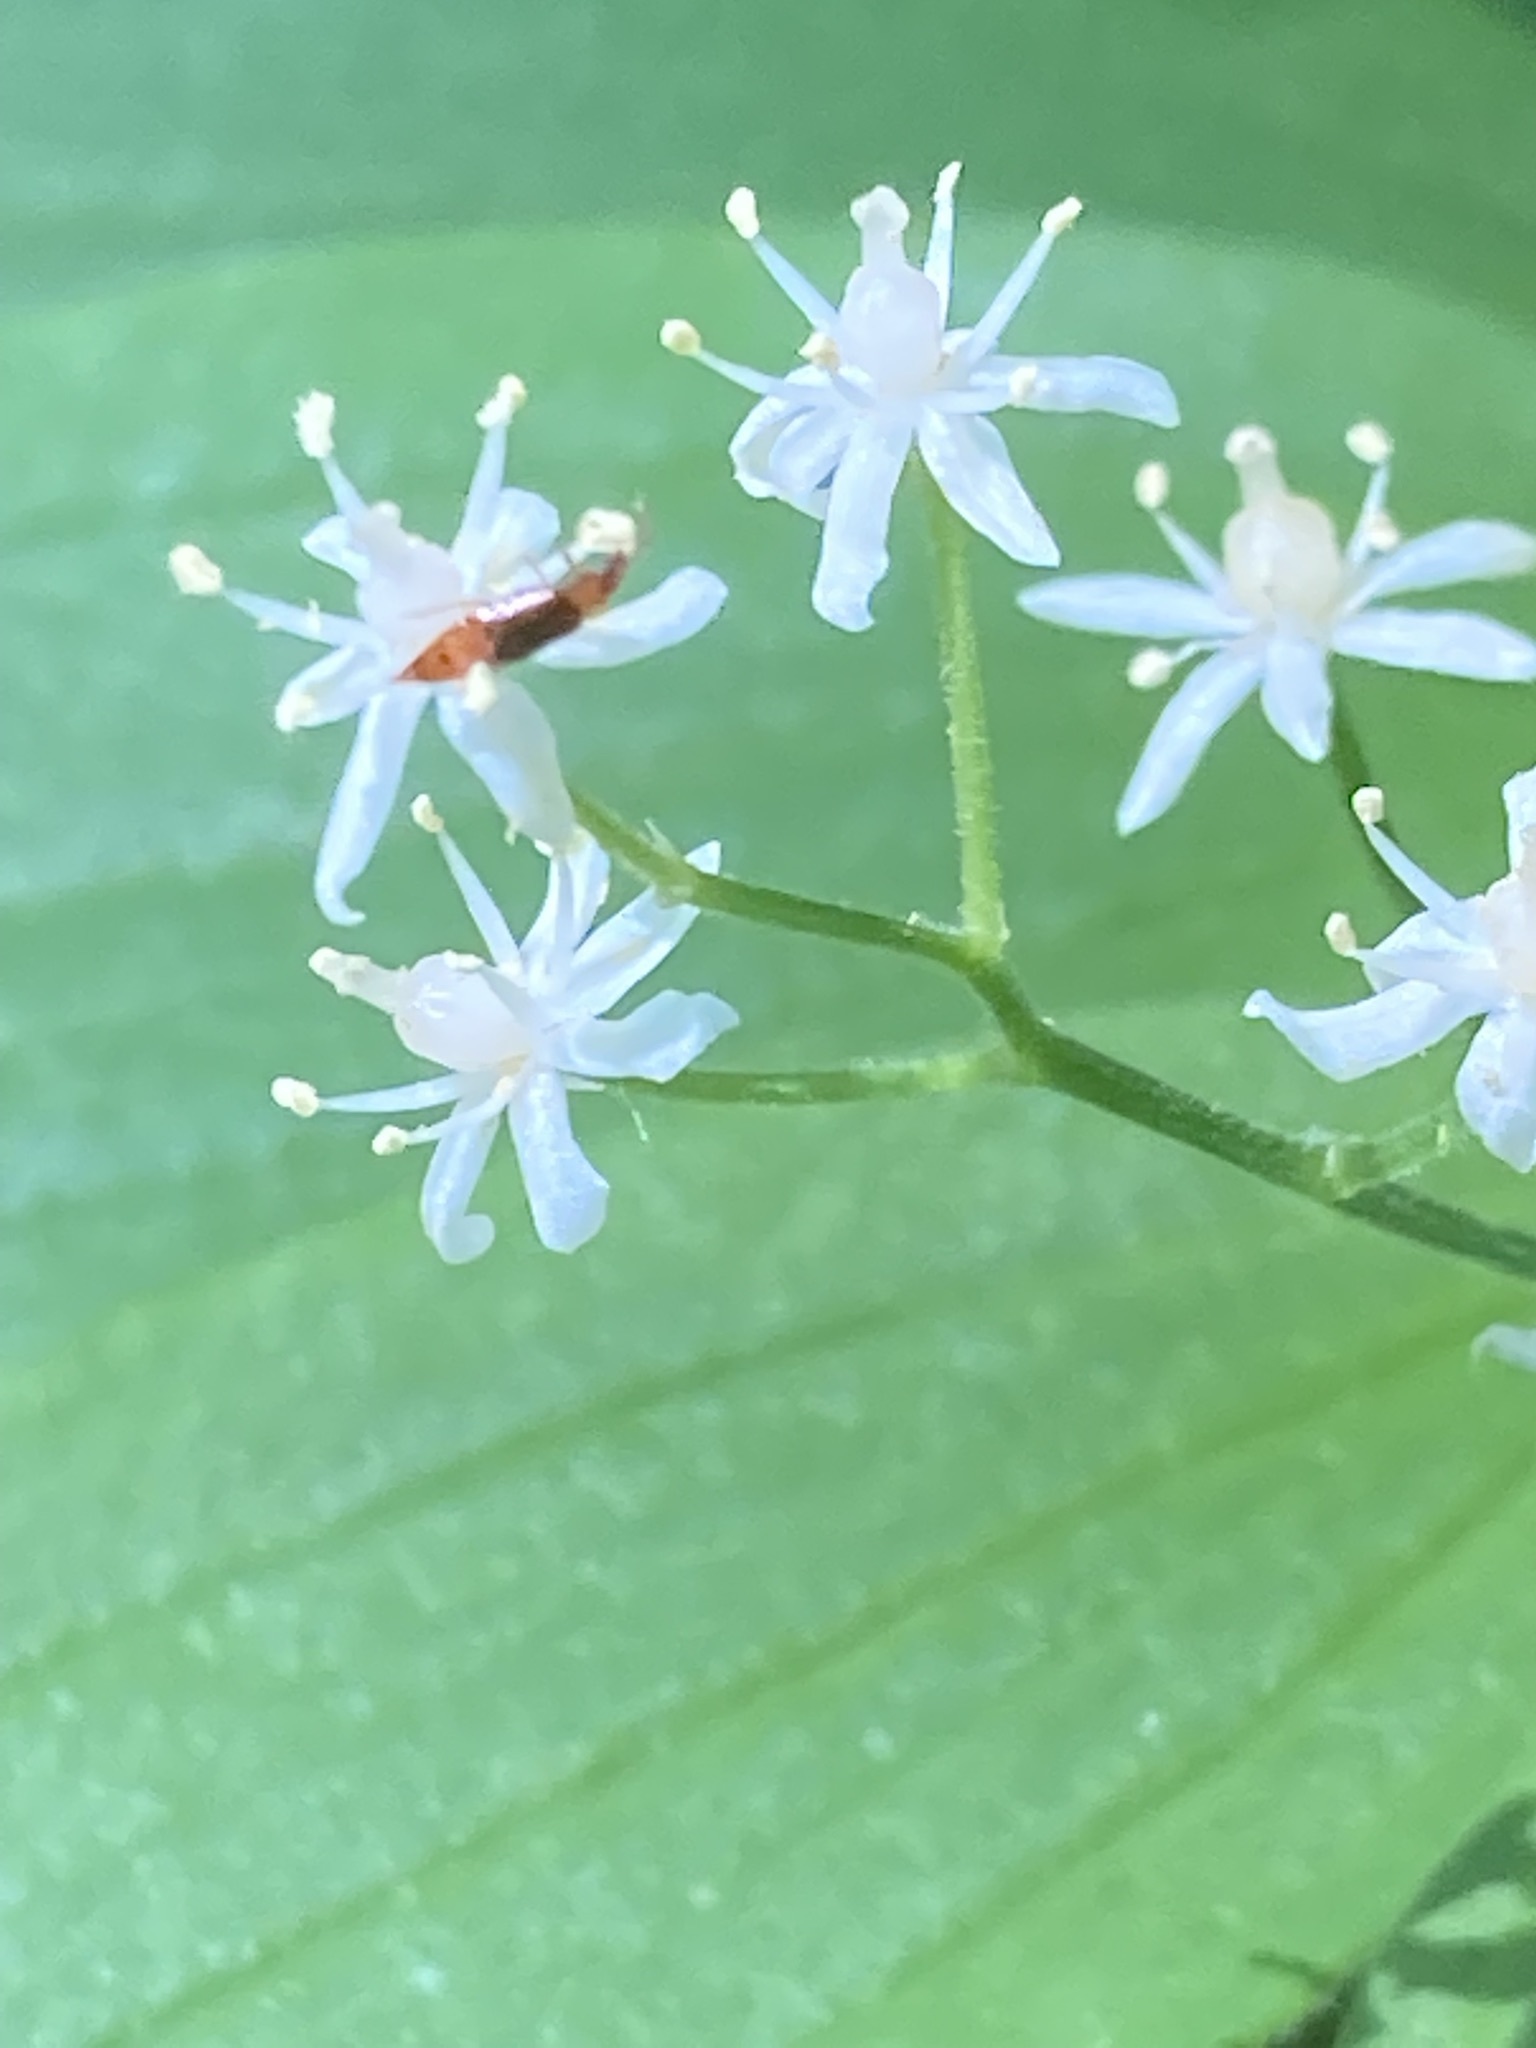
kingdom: Plantae
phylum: Tracheophyta
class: Liliopsida
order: Asparagales
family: Asparagaceae
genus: Maianthemum
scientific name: Maianthemum stellatum
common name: Little false solomon's seal
